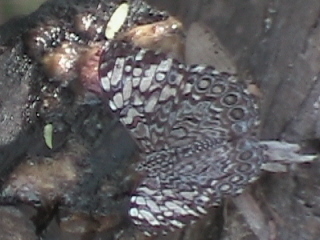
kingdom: Animalia
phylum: Arthropoda
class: Insecta
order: Lepidoptera
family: Nymphalidae
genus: Hamadryas
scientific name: Hamadryas guatemalena
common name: Guatemalan cracker
